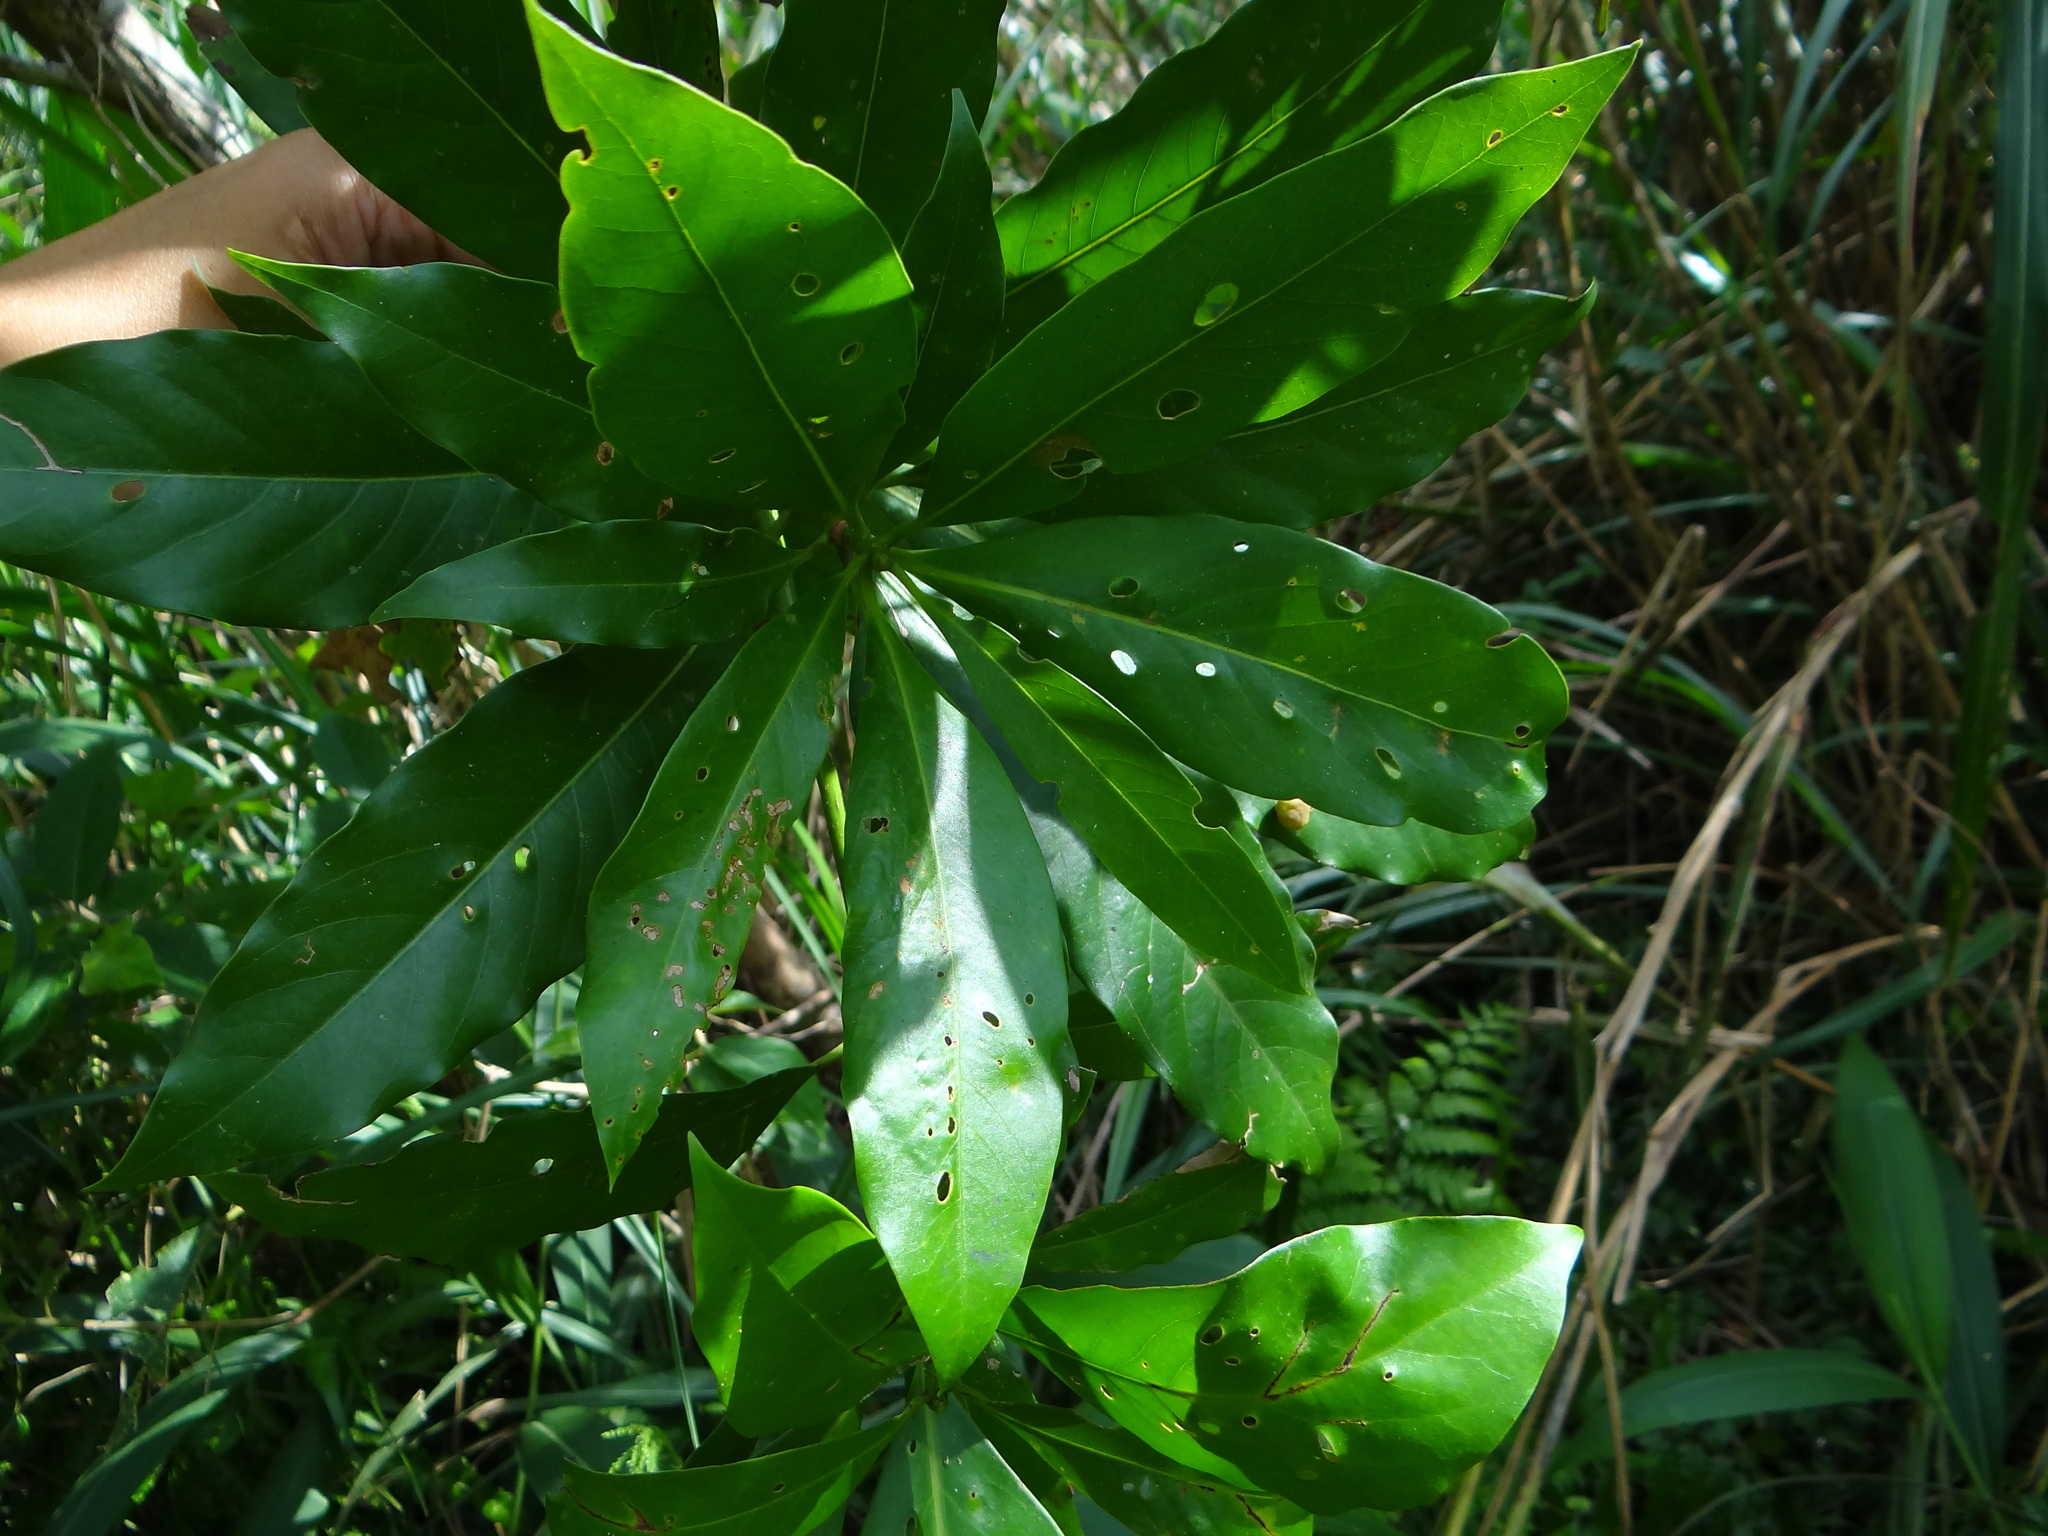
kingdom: Animalia
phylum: Arthropoda
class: Insecta
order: Hemiptera
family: Triozidae
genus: Neotrioza
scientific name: Neotrioza shuiliensis
